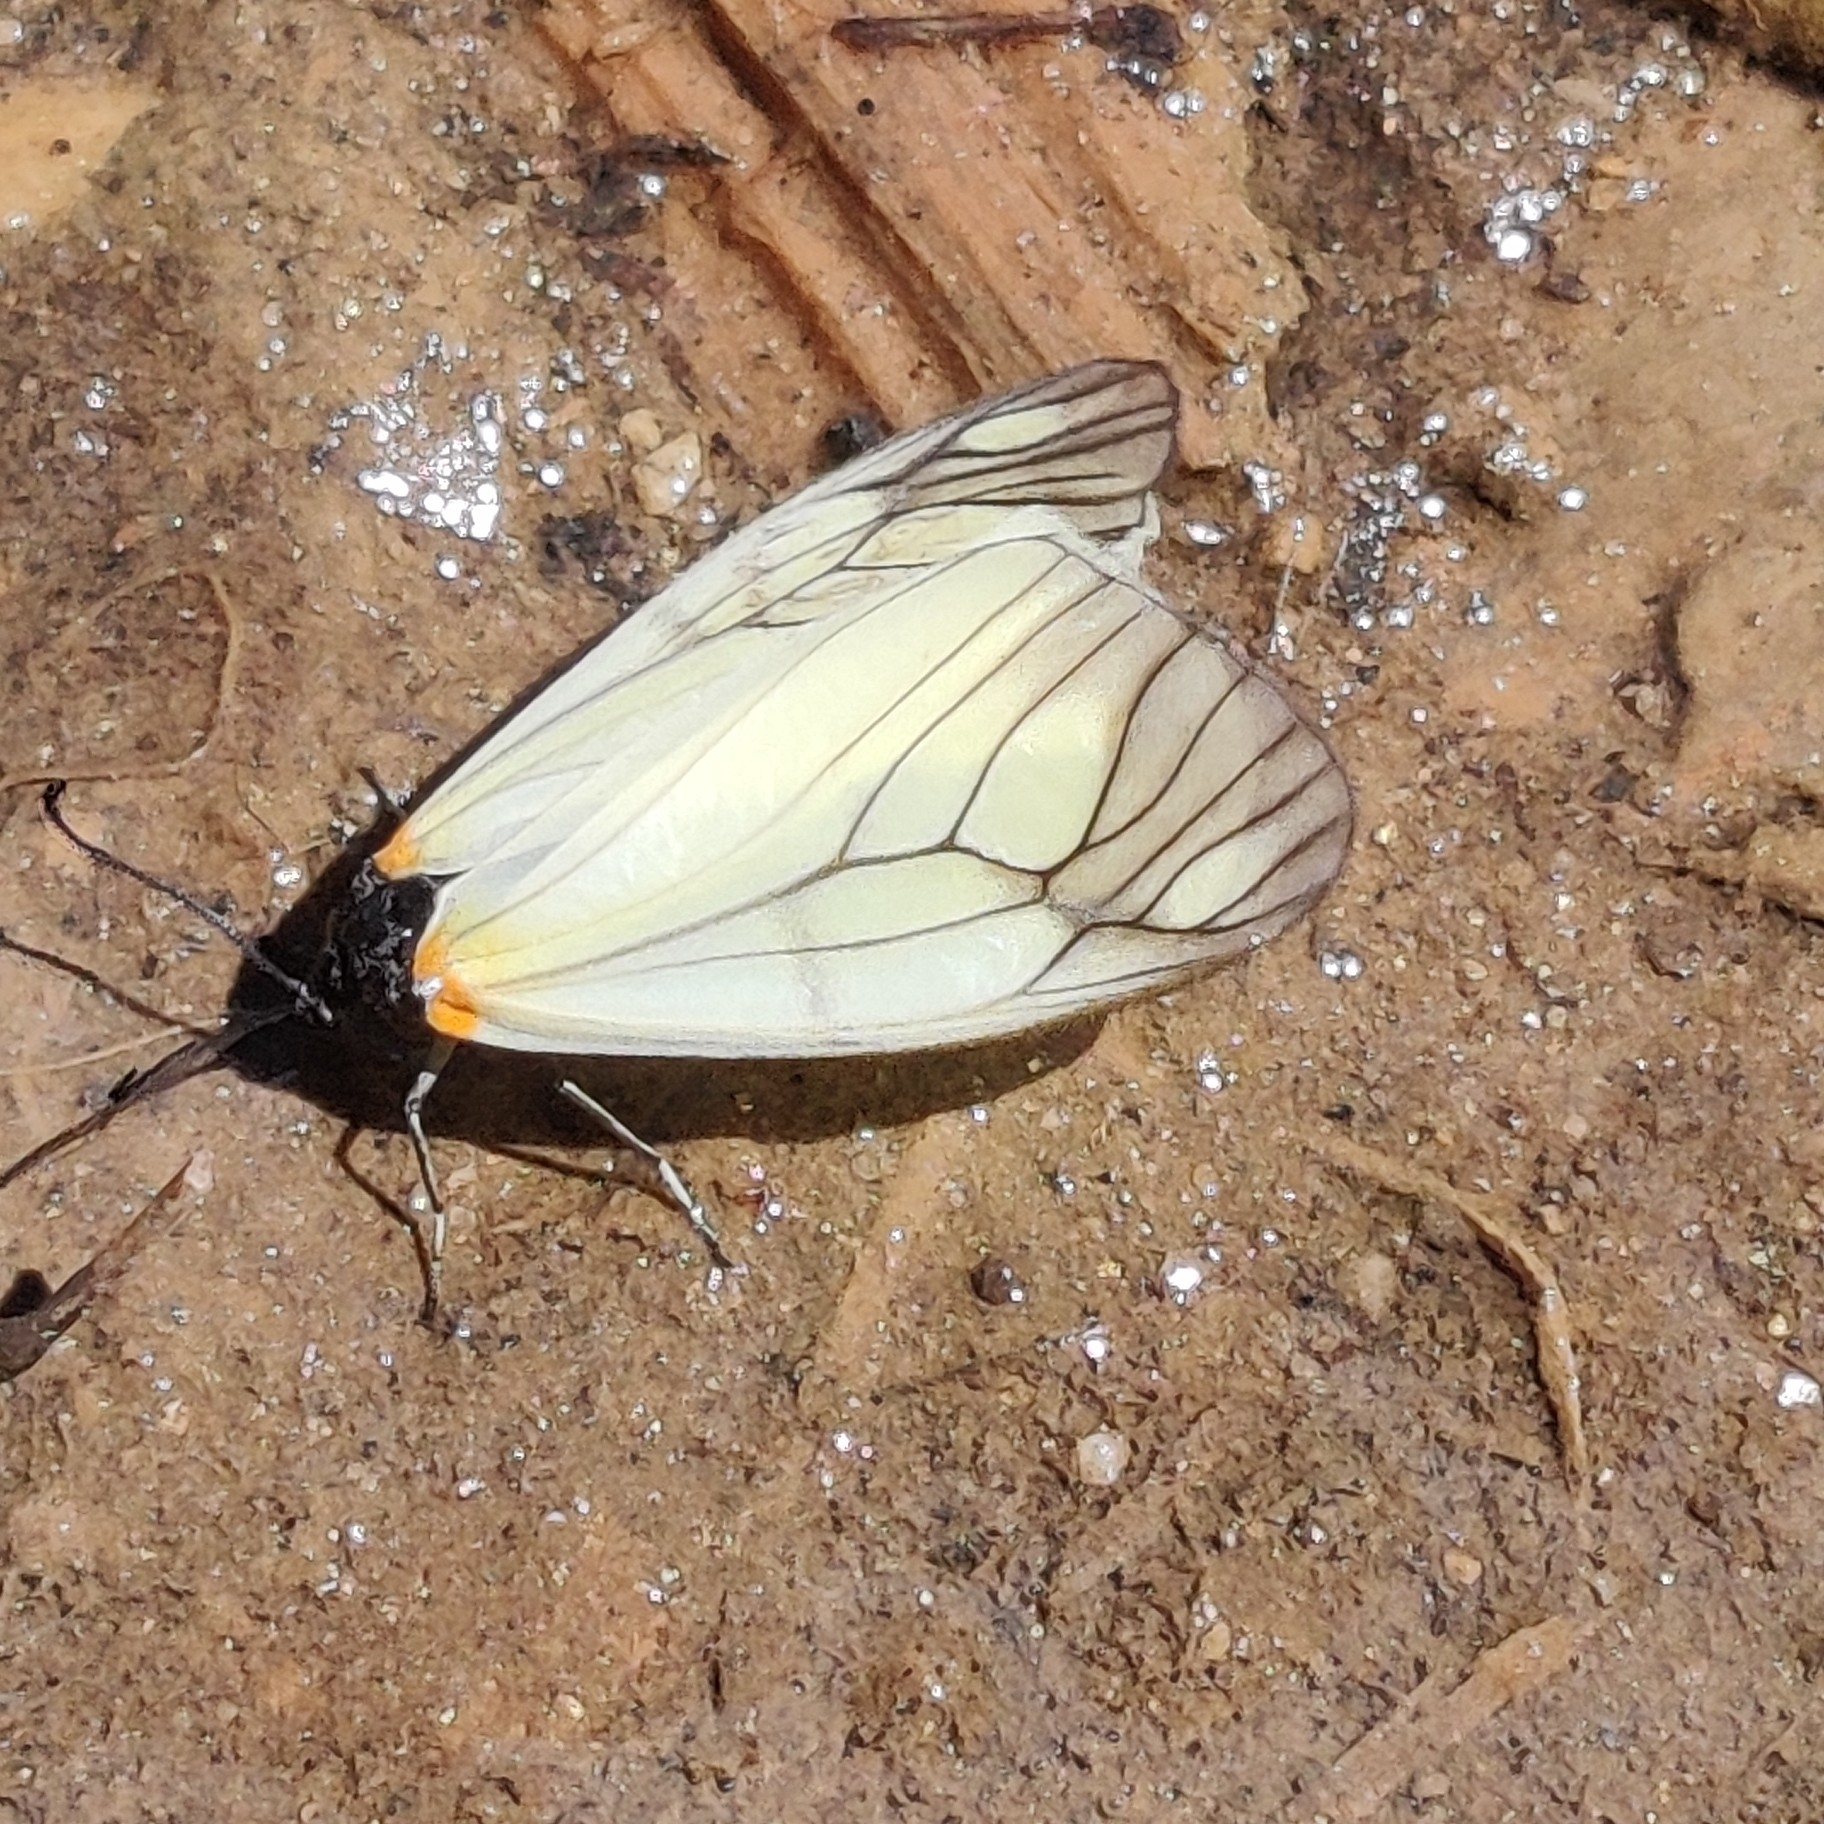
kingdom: Animalia
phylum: Arthropoda
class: Insecta
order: Lepidoptera
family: Zygaenidae
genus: Agalope
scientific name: Agalope hyalina
